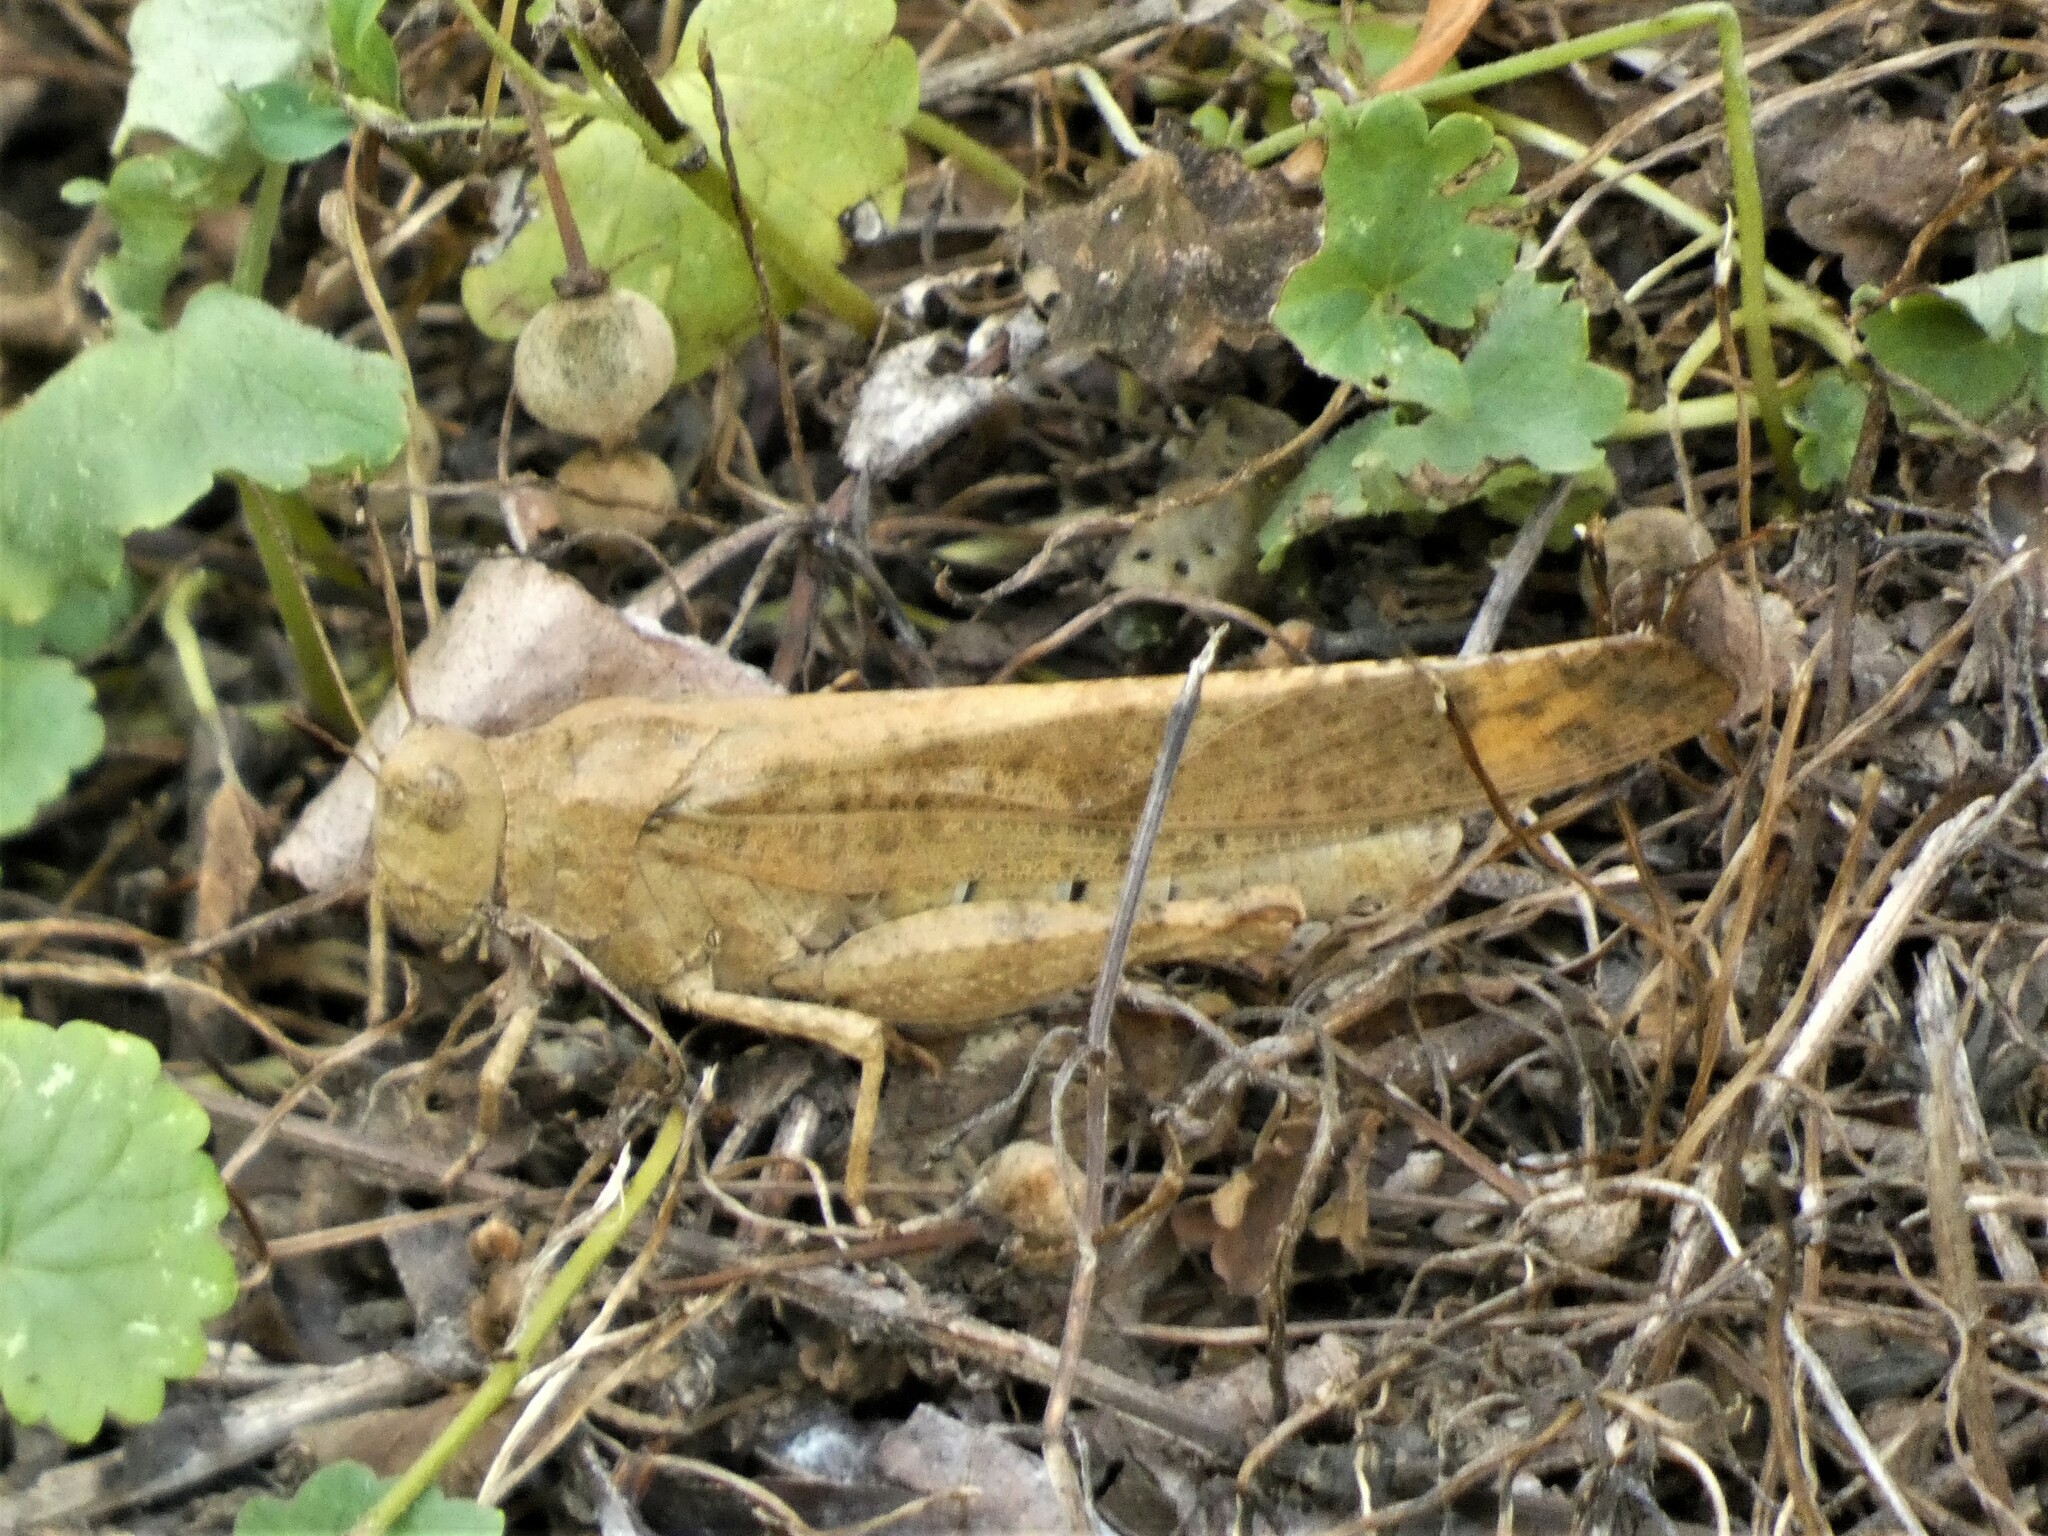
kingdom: Animalia
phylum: Arthropoda
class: Insecta
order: Orthoptera
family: Acrididae
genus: Dissosteira
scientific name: Dissosteira carolina
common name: Carolina grasshopper
